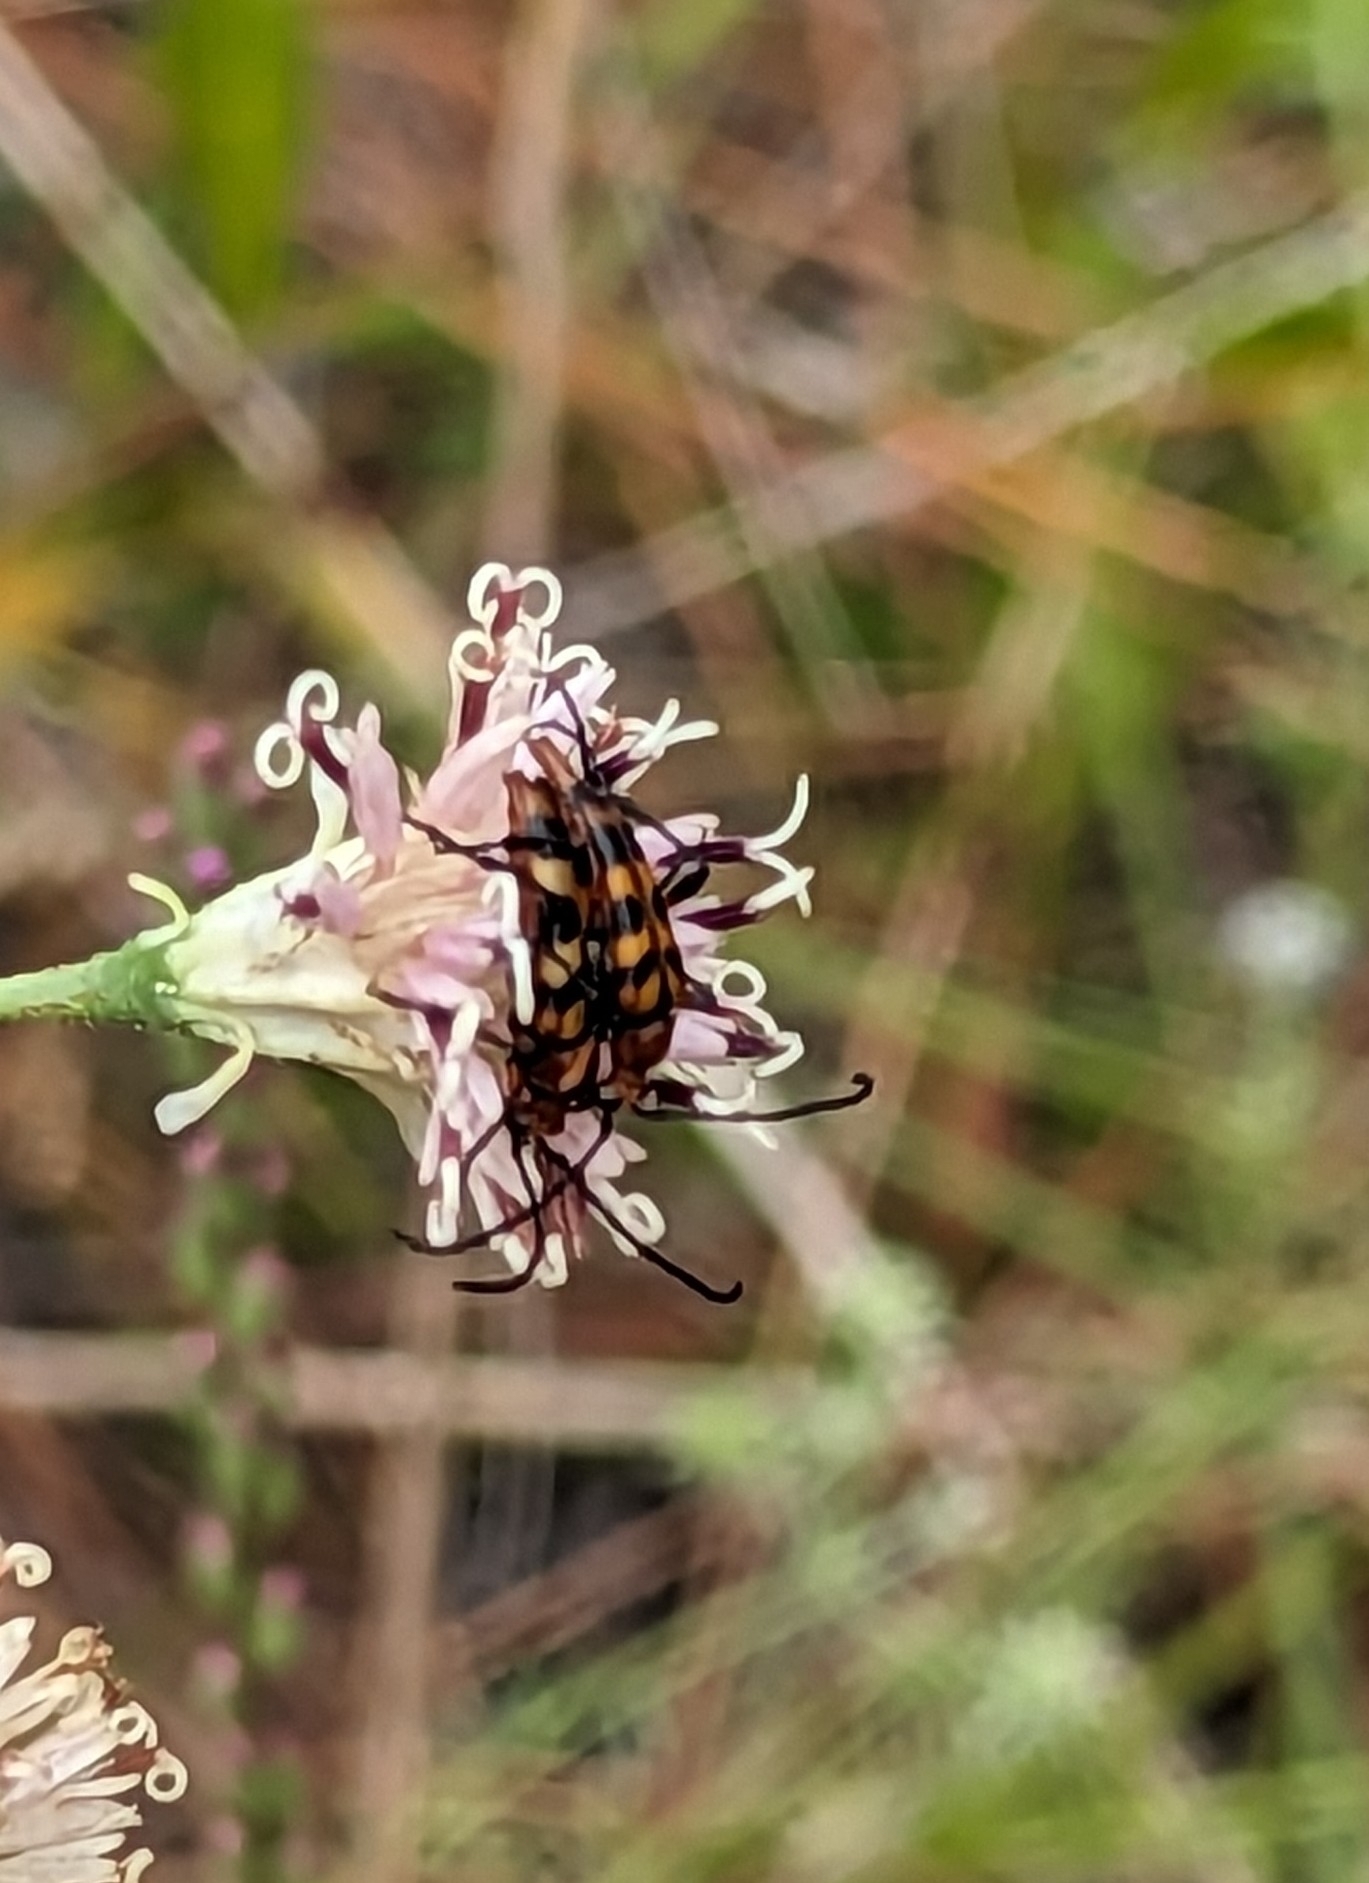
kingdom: Animalia
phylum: Arthropoda
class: Insecta
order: Coleoptera
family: Cerambycidae
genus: Strangalia
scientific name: Strangalia luteicornis
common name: Yellow-horned flower longhorn beetle
